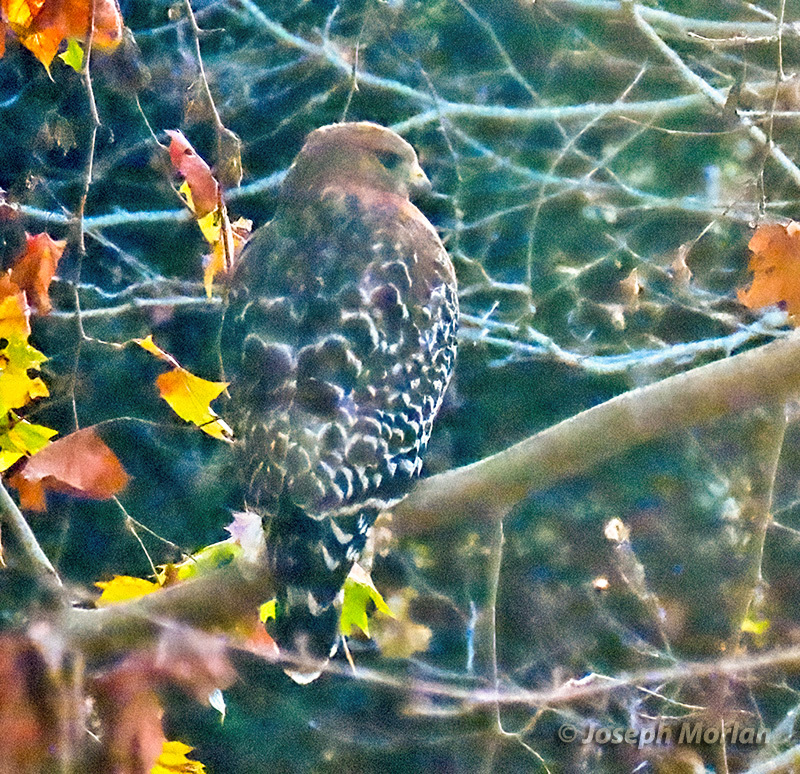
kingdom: Animalia
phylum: Chordata
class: Aves
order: Accipitriformes
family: Accipitridae
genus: Buteo
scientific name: Buteo lineatus
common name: Red-shouldered hawk
